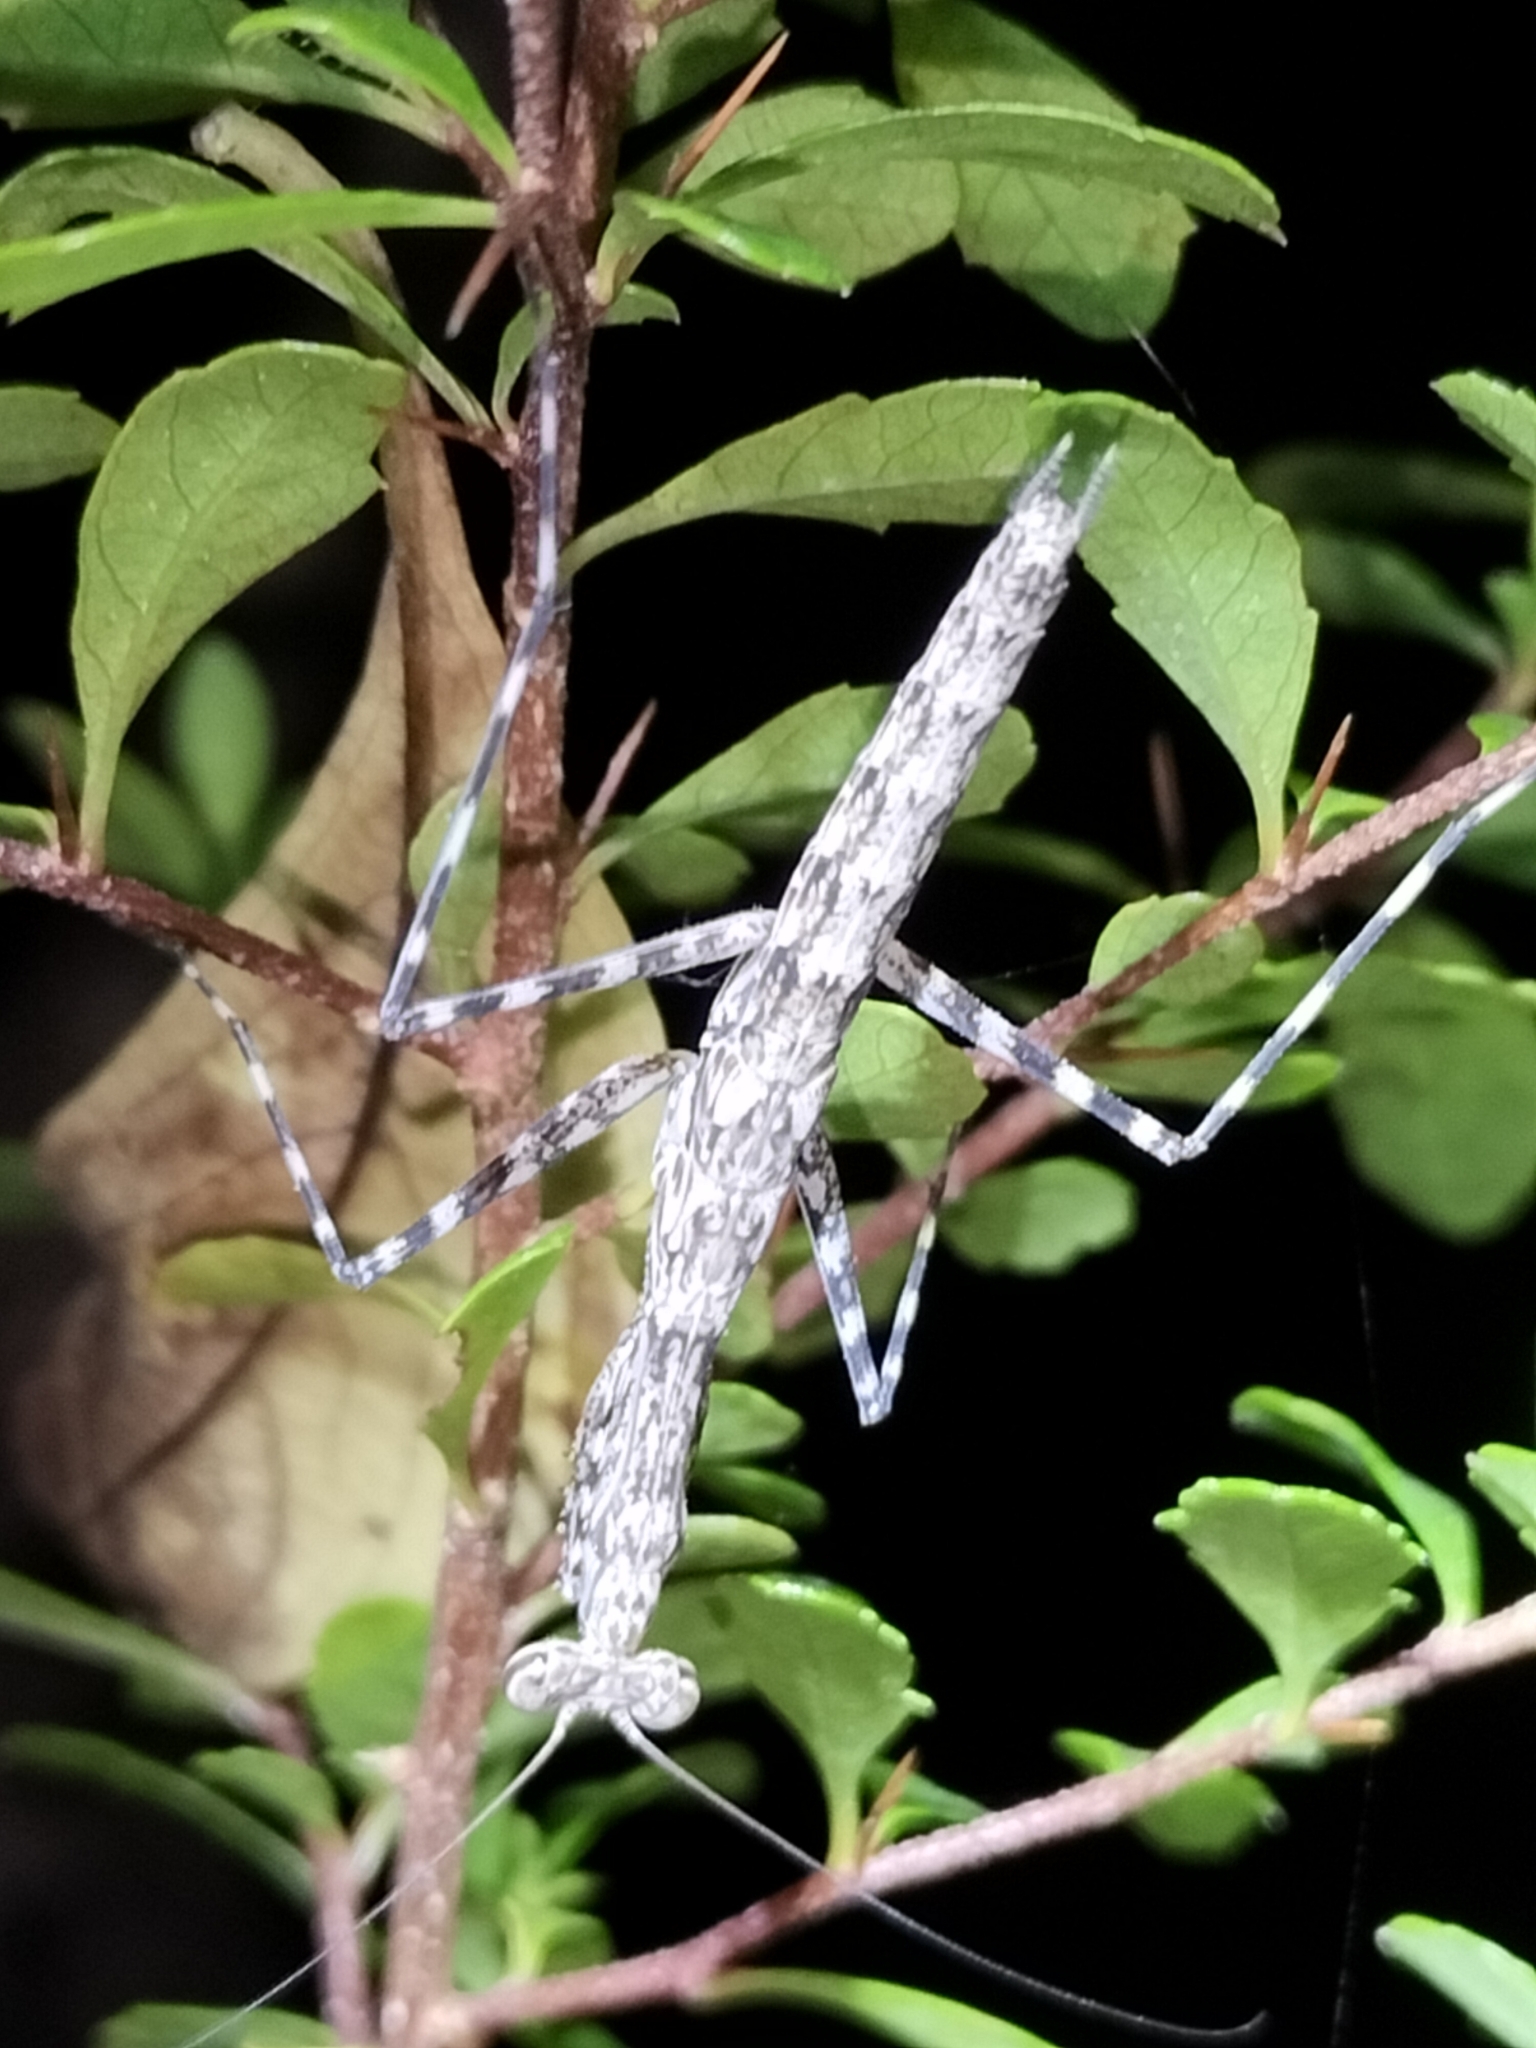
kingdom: Animalia
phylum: Arthropoda
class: Insecta
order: Mantodea
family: Nanomantidae
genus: Ciulfina
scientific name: Ciulfina biseriata
